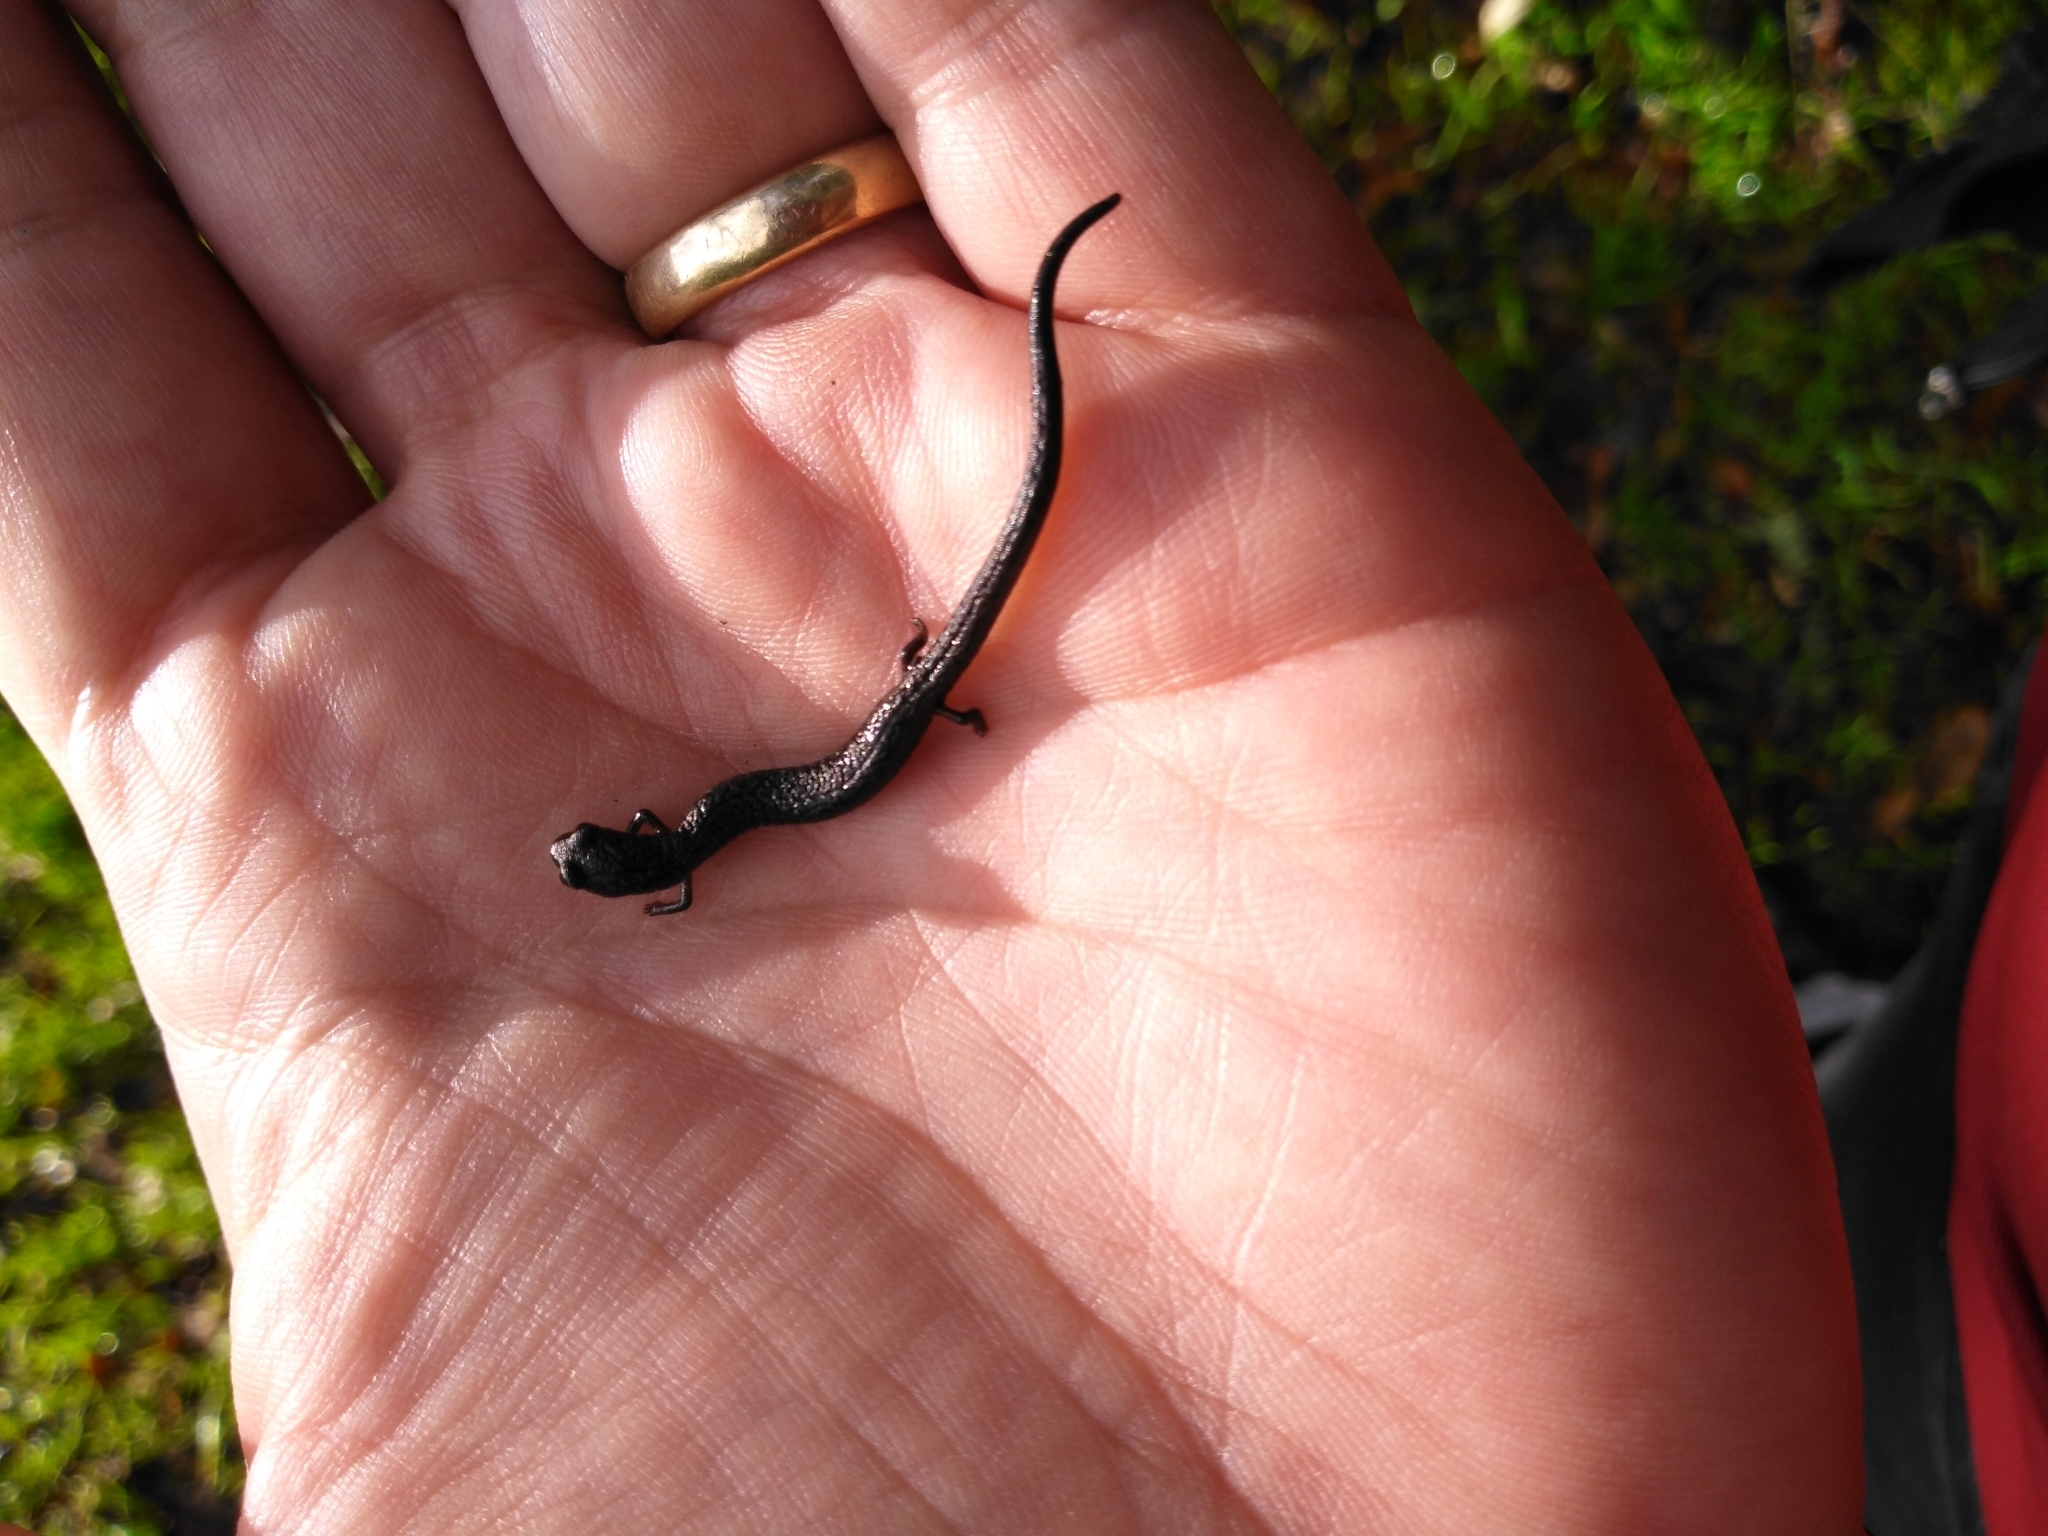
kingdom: Animalia
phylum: Chordata
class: Amphibia
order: Caudata
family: Plethodontidae
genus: Batrachoseps
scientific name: Batrachoseps attenuatus
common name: California slender salamander
